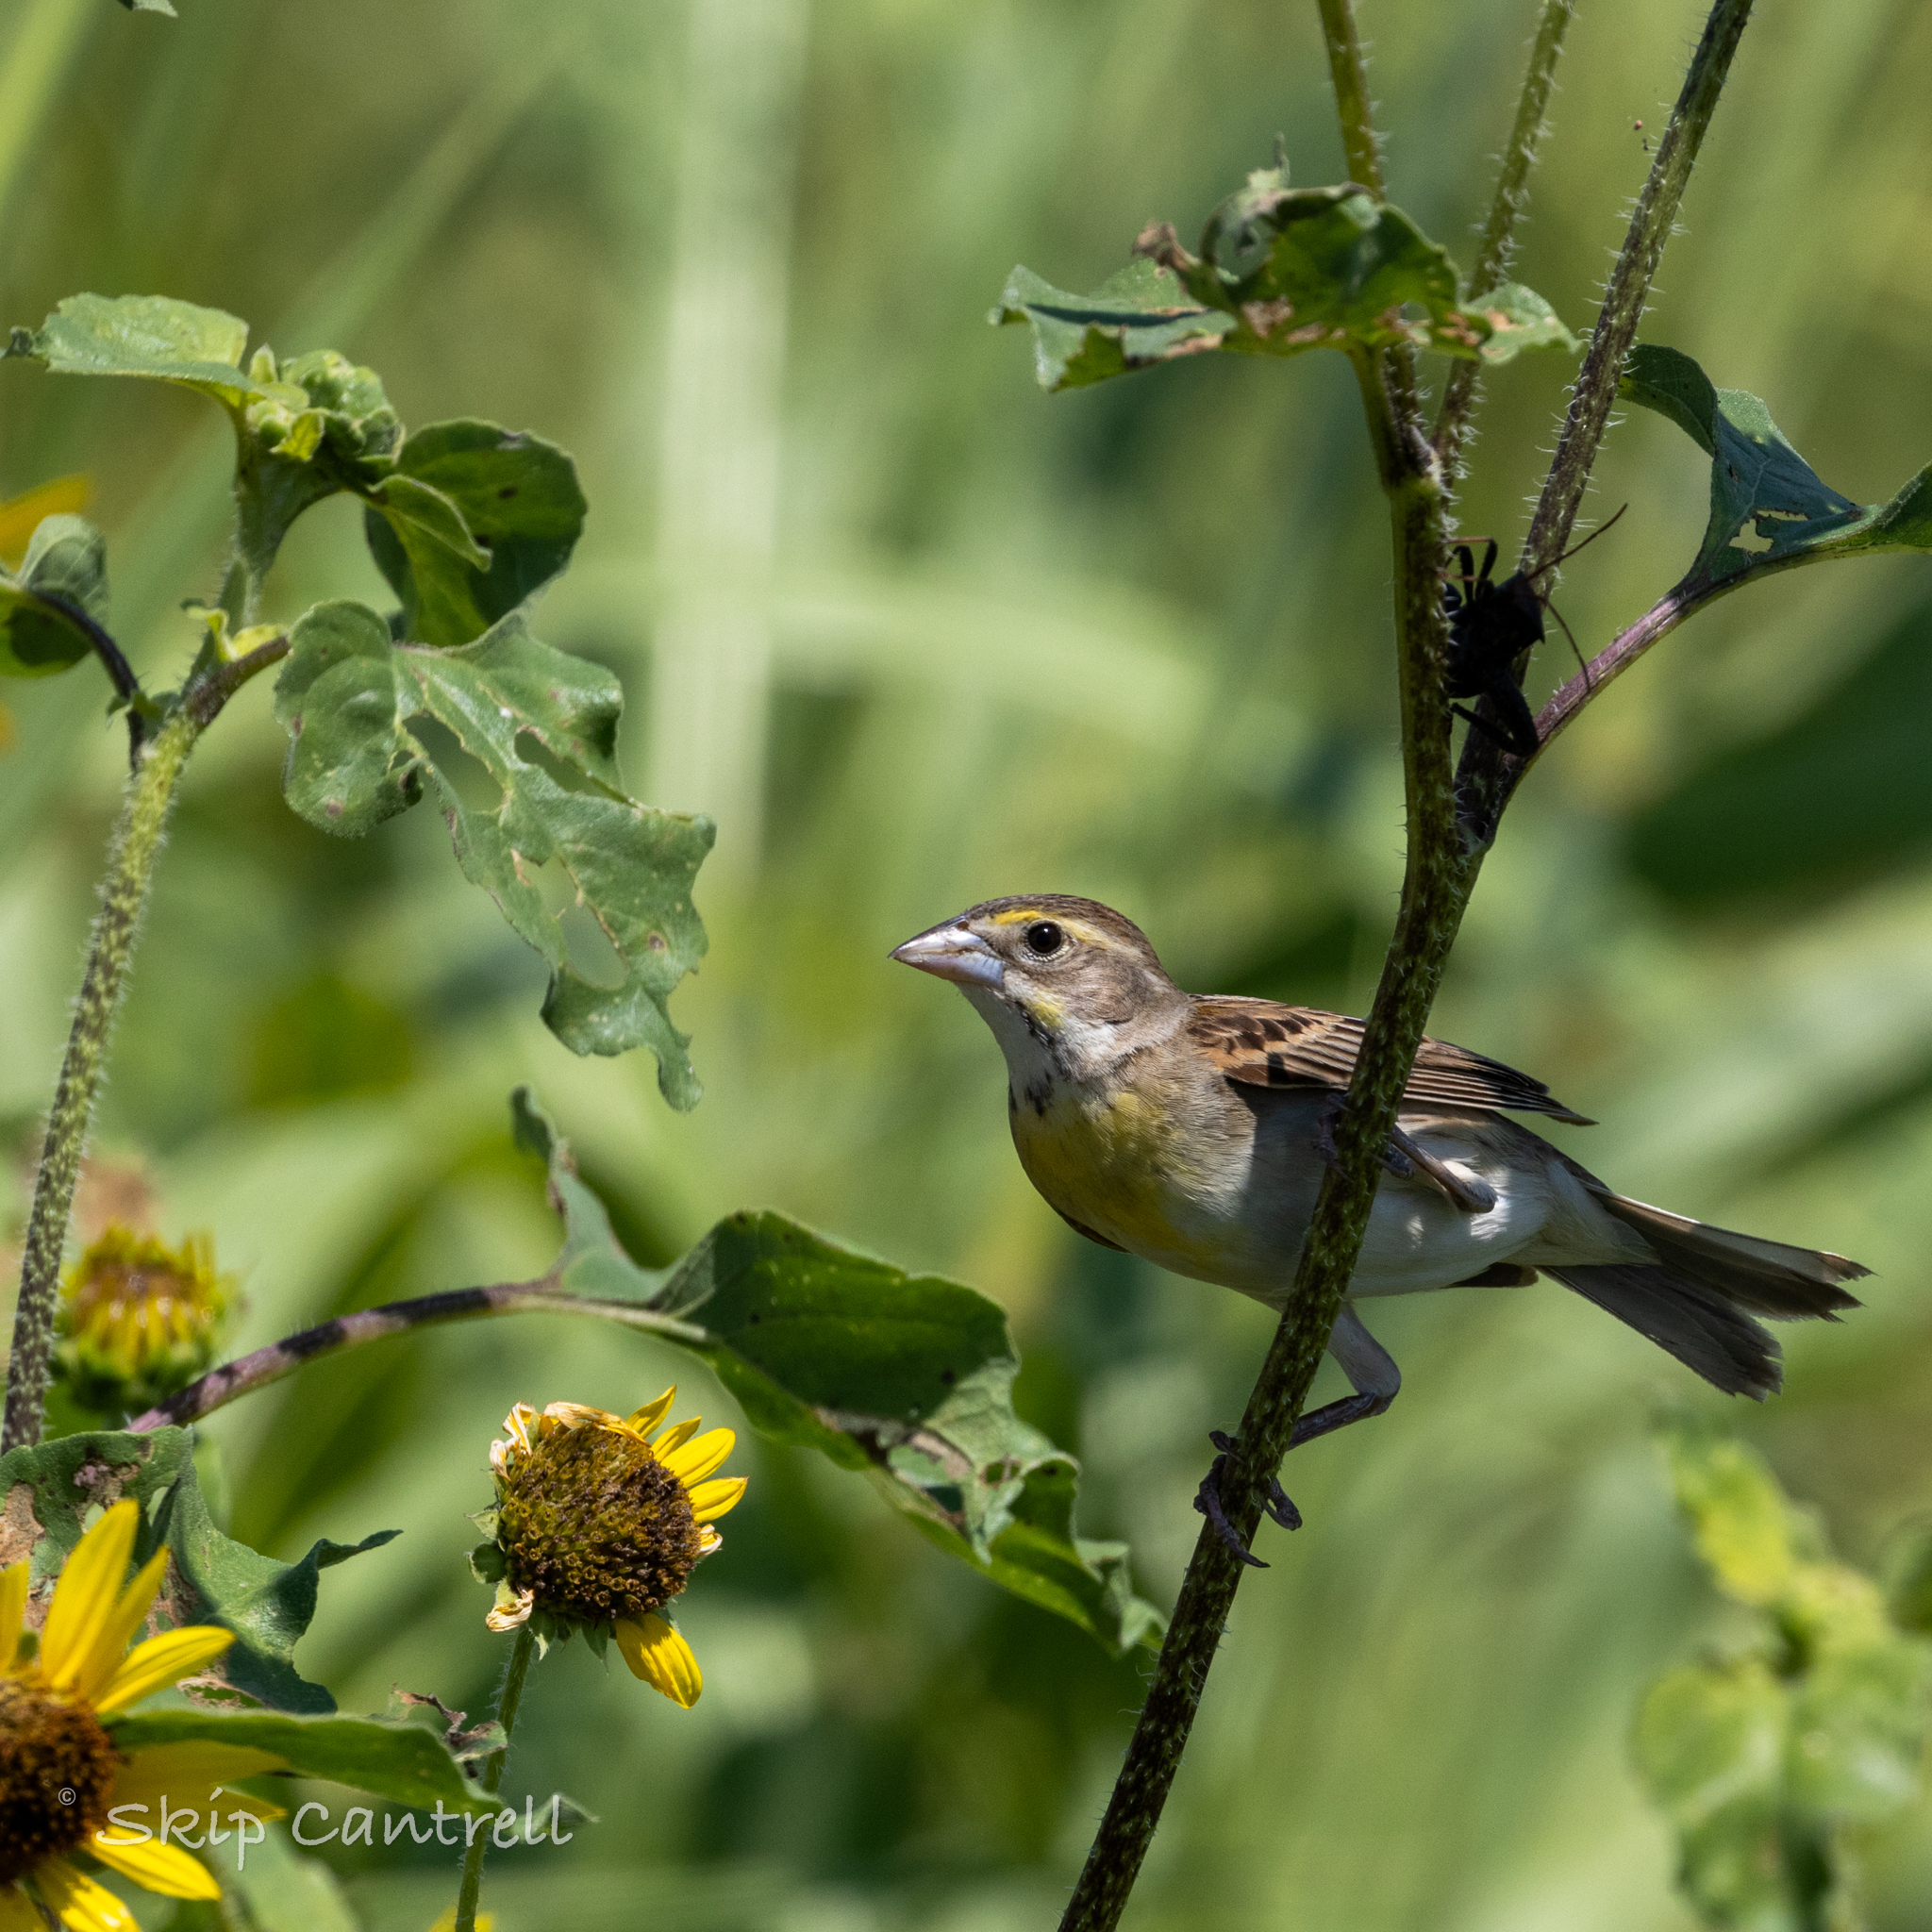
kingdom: Animalia
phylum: Chordata
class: Aves
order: Passeriformes
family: Cardinalidae
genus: Spiza
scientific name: Spiza americana
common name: Dickcissel
